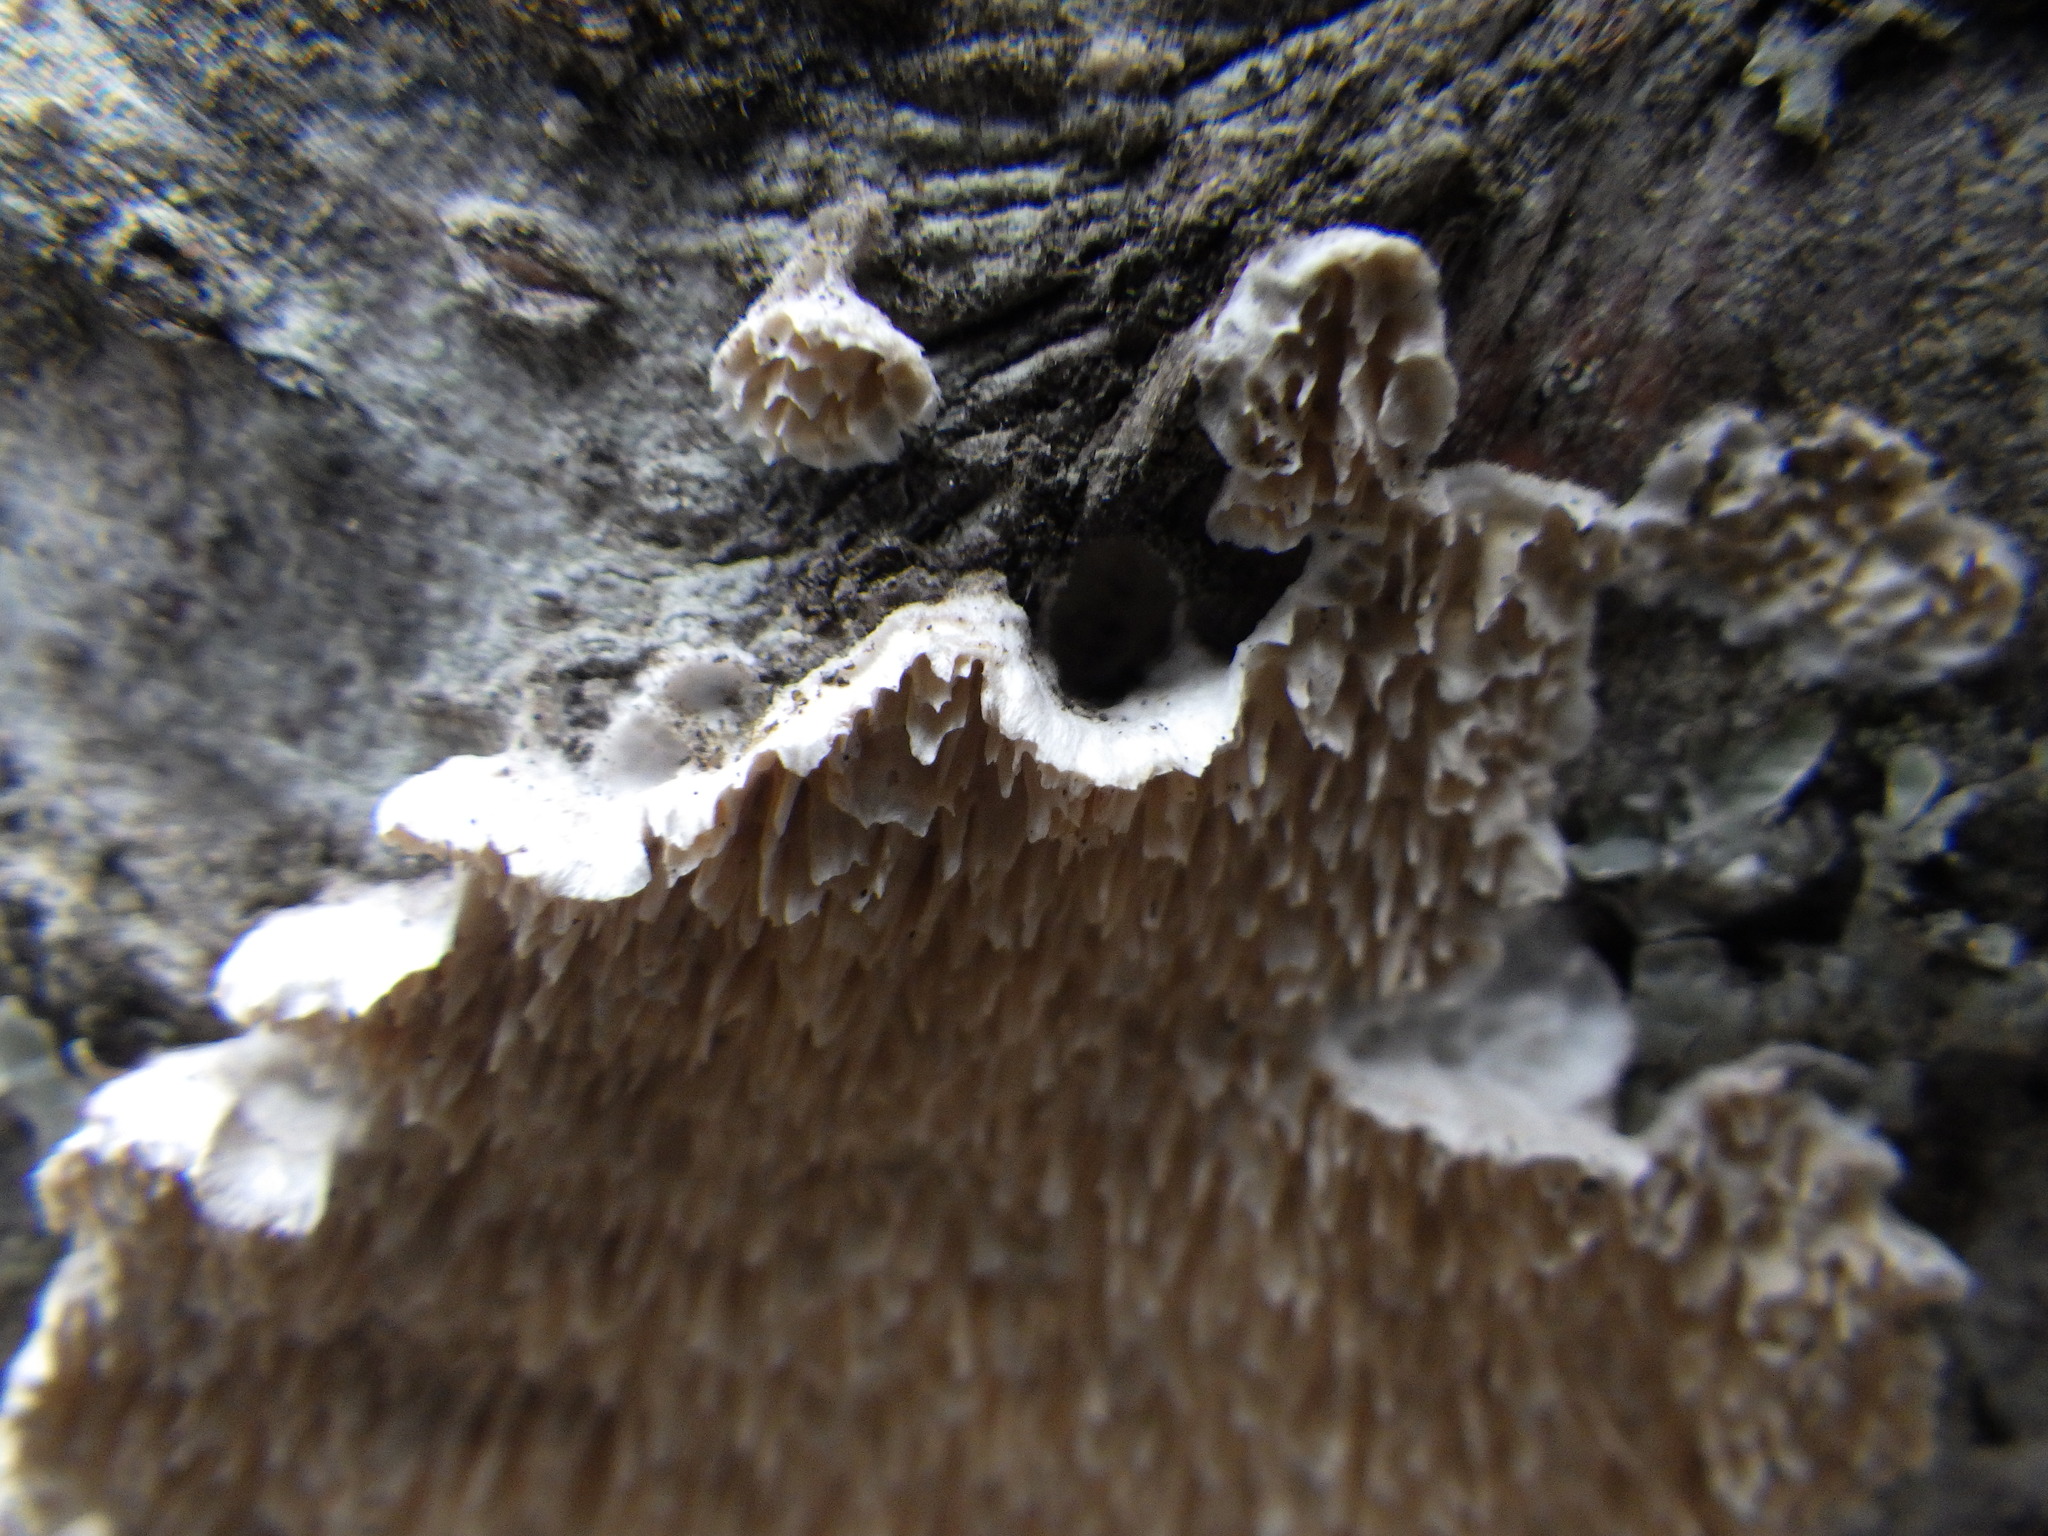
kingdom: Fungi
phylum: Basidiomycota
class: Agaricomycetes
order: Polyporales
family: Irpicaceae
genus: Irpex
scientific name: Irpex lacteus
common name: Milk-white toothed polypore
